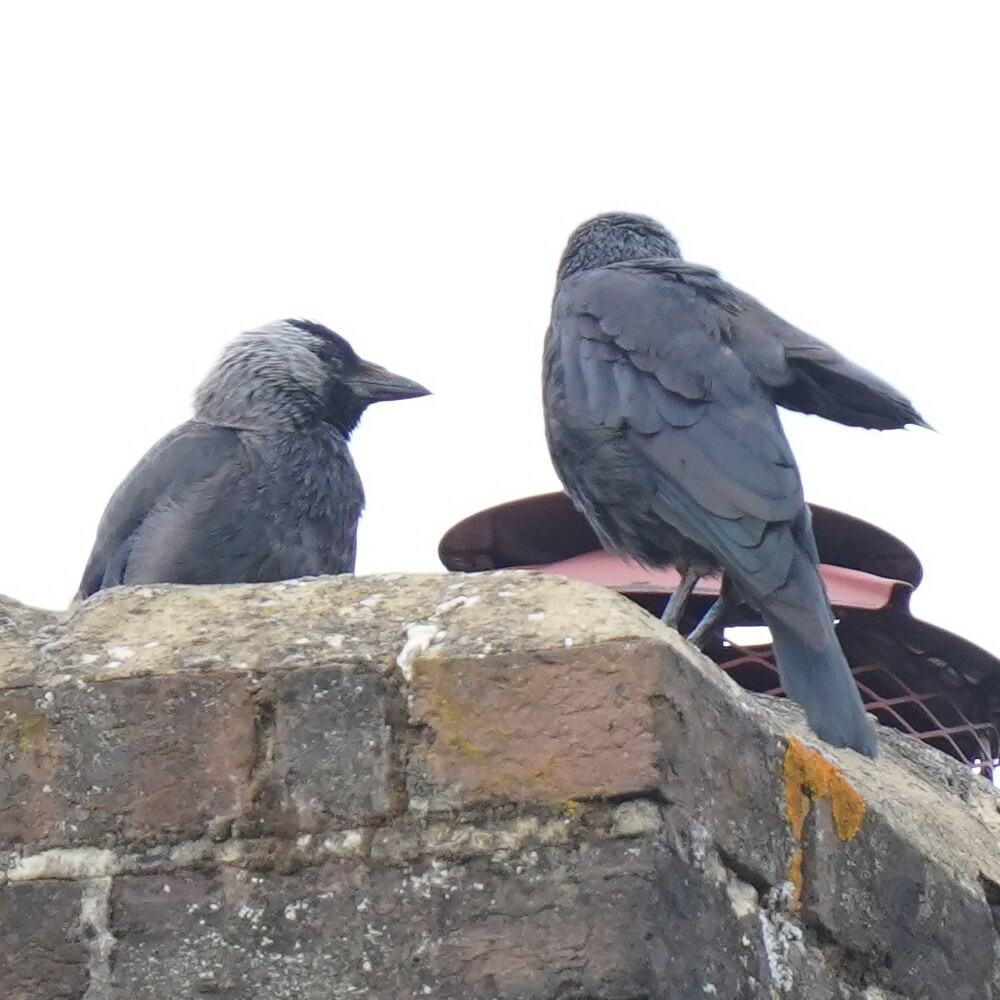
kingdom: Animalia
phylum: Chordata
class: Aves
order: Passeriformes
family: Corvidae
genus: Coloeus
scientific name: Coloeus monedula
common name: Western jackdaw
